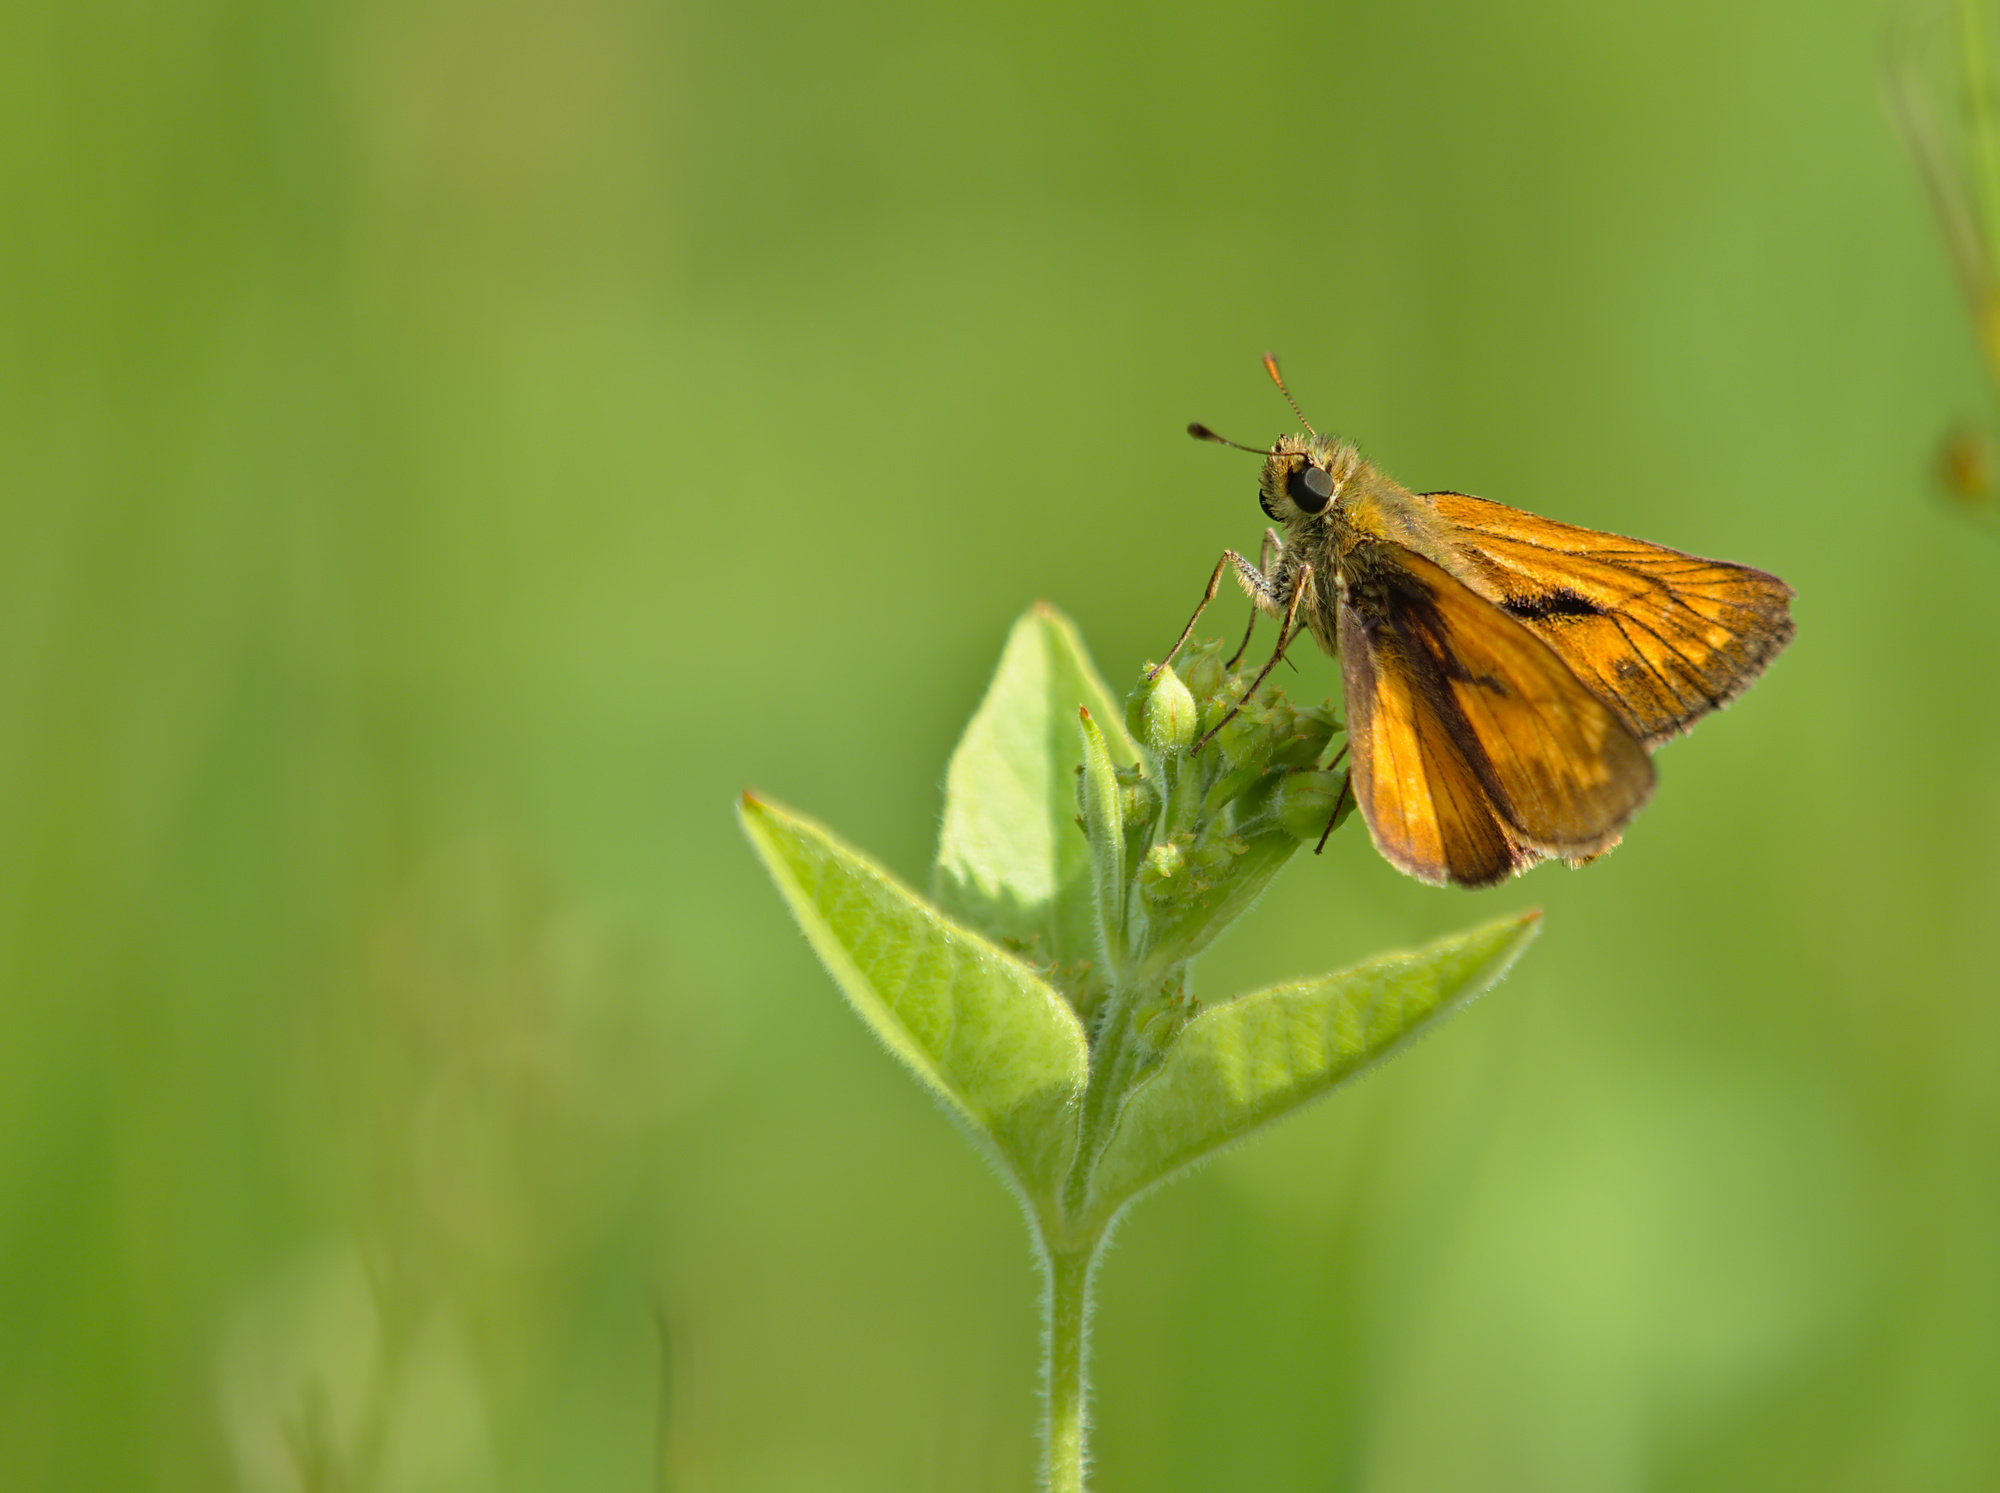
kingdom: Animalia
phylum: Arthropoda
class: Insecta
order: Lepidoptera
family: Hesperiidae
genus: Ochlodes
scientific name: Ochlodes venata
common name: Large skipper
